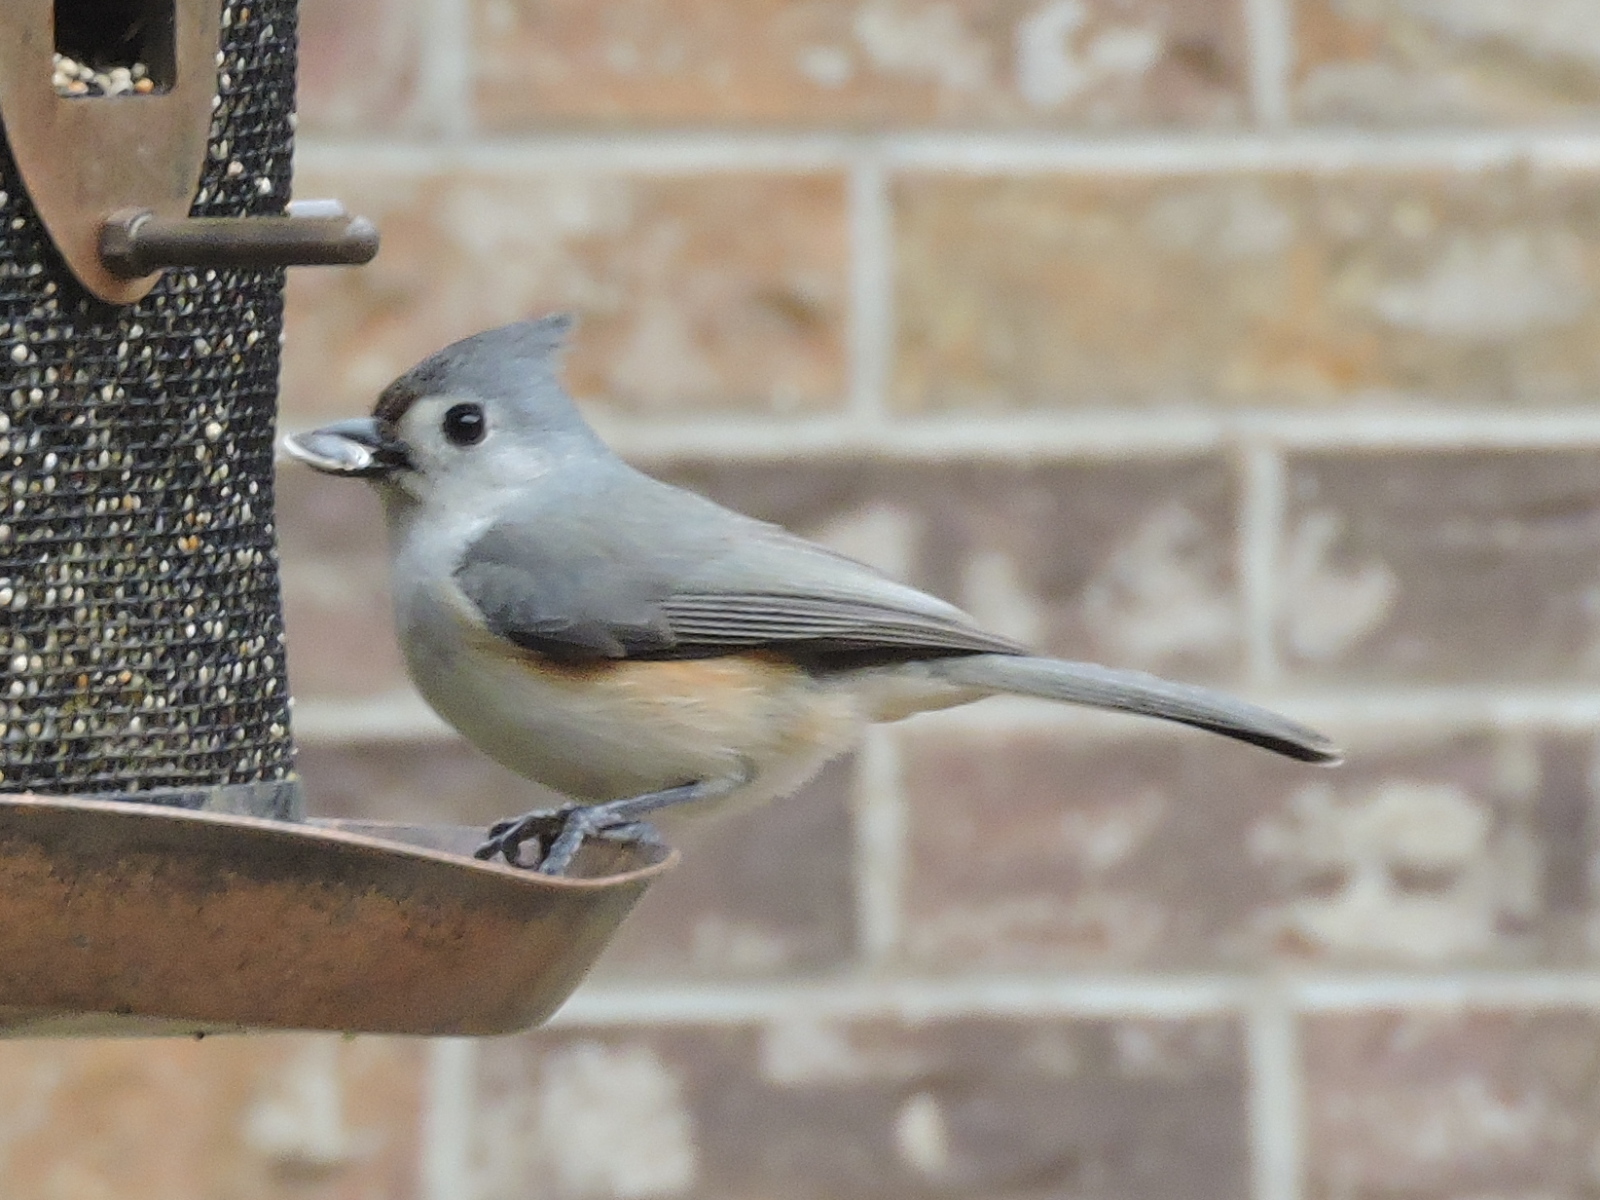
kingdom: Animalia
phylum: Chordata
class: Aves
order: Passeriformes
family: Paridae
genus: Baeolophus
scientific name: Baeolophus bicolor
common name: Tufted titmouse
